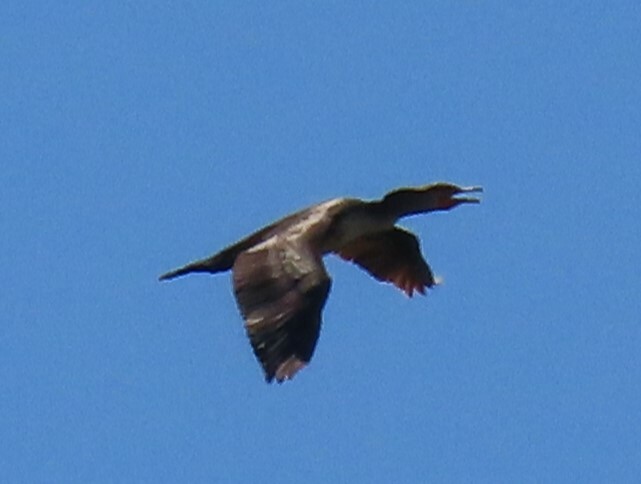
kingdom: Animalia
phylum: Chordata
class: Aves
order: Suliformes
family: Phalacrocoracidae
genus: Phalacrocorax
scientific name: Phalacrocorax auritus
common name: Double-crested cormorant
